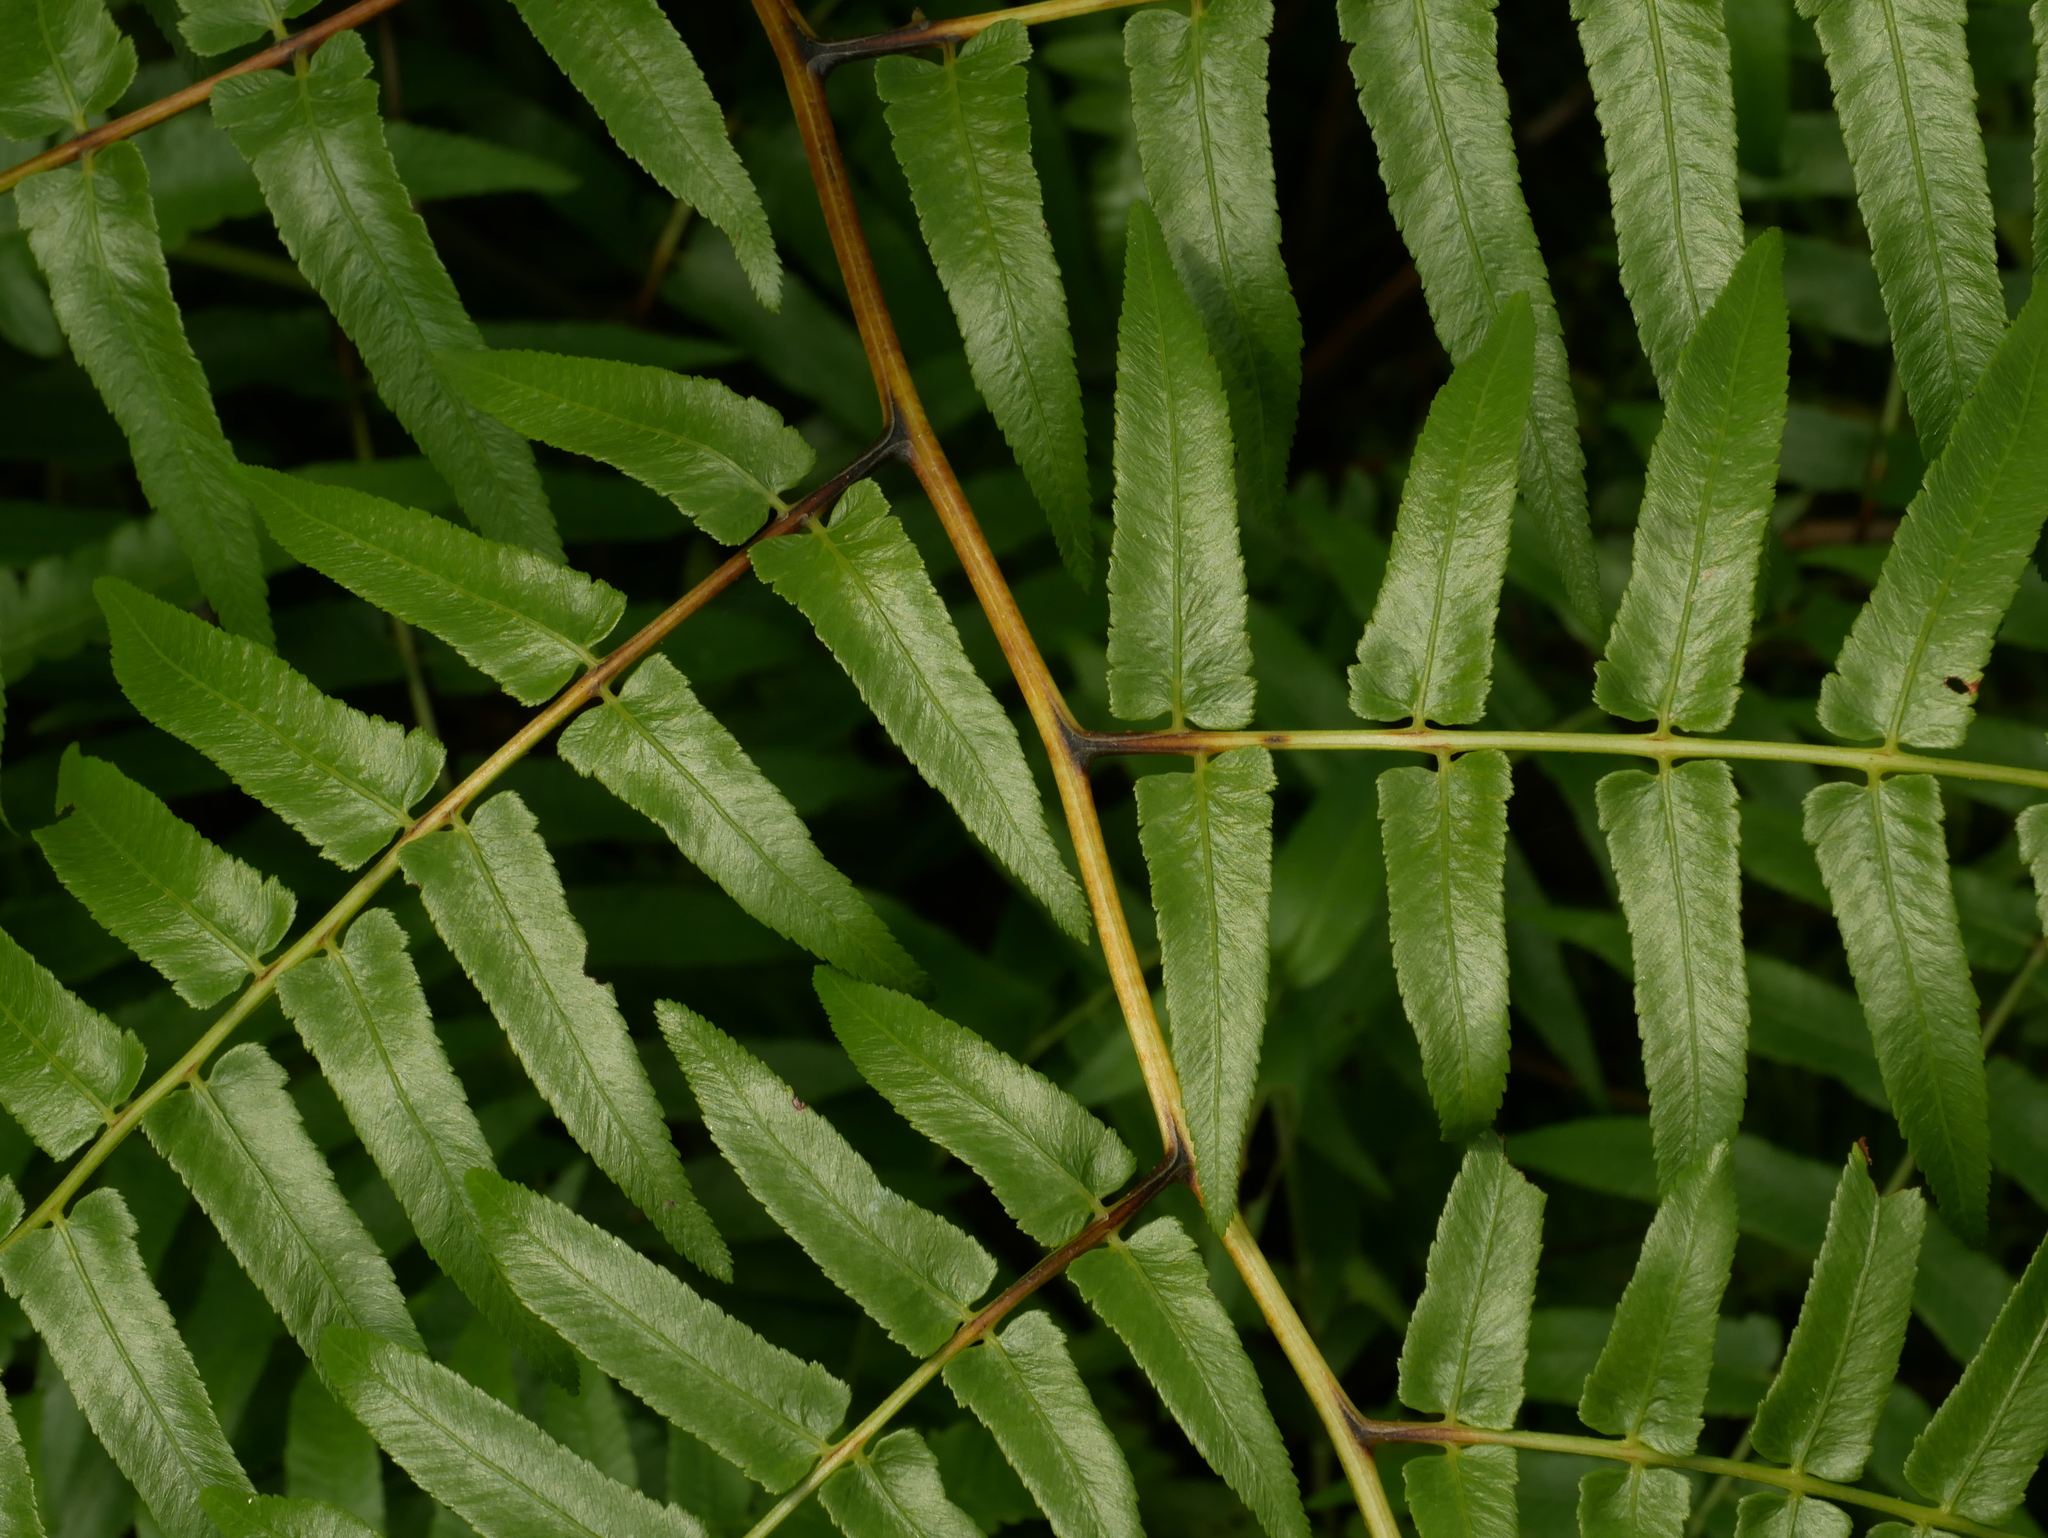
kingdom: Plantae
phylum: Tracheophyta
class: Polypodiopsida
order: Polypodiales
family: Athyriaceae
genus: Diplazium
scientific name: Diplazium esculentum
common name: Vegetable fern
